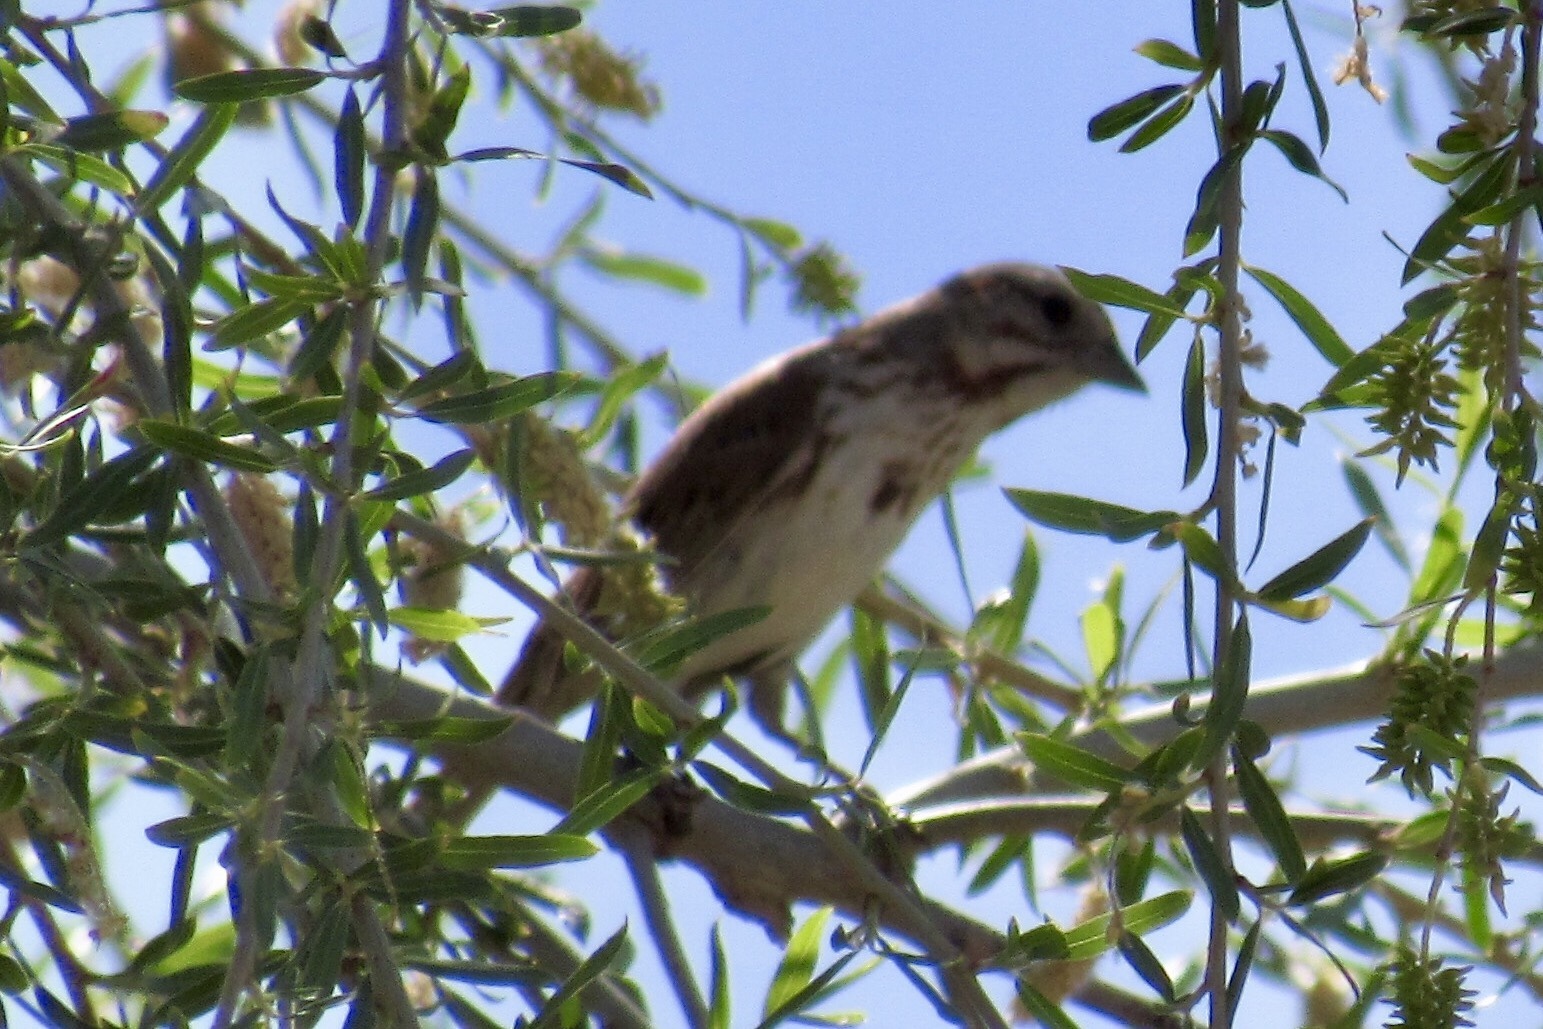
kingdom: Animalia
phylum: Chordata
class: Aves
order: Passeriformes
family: Passerellidae
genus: Melospiza
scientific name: Melospiza melodia
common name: Song sparrow
